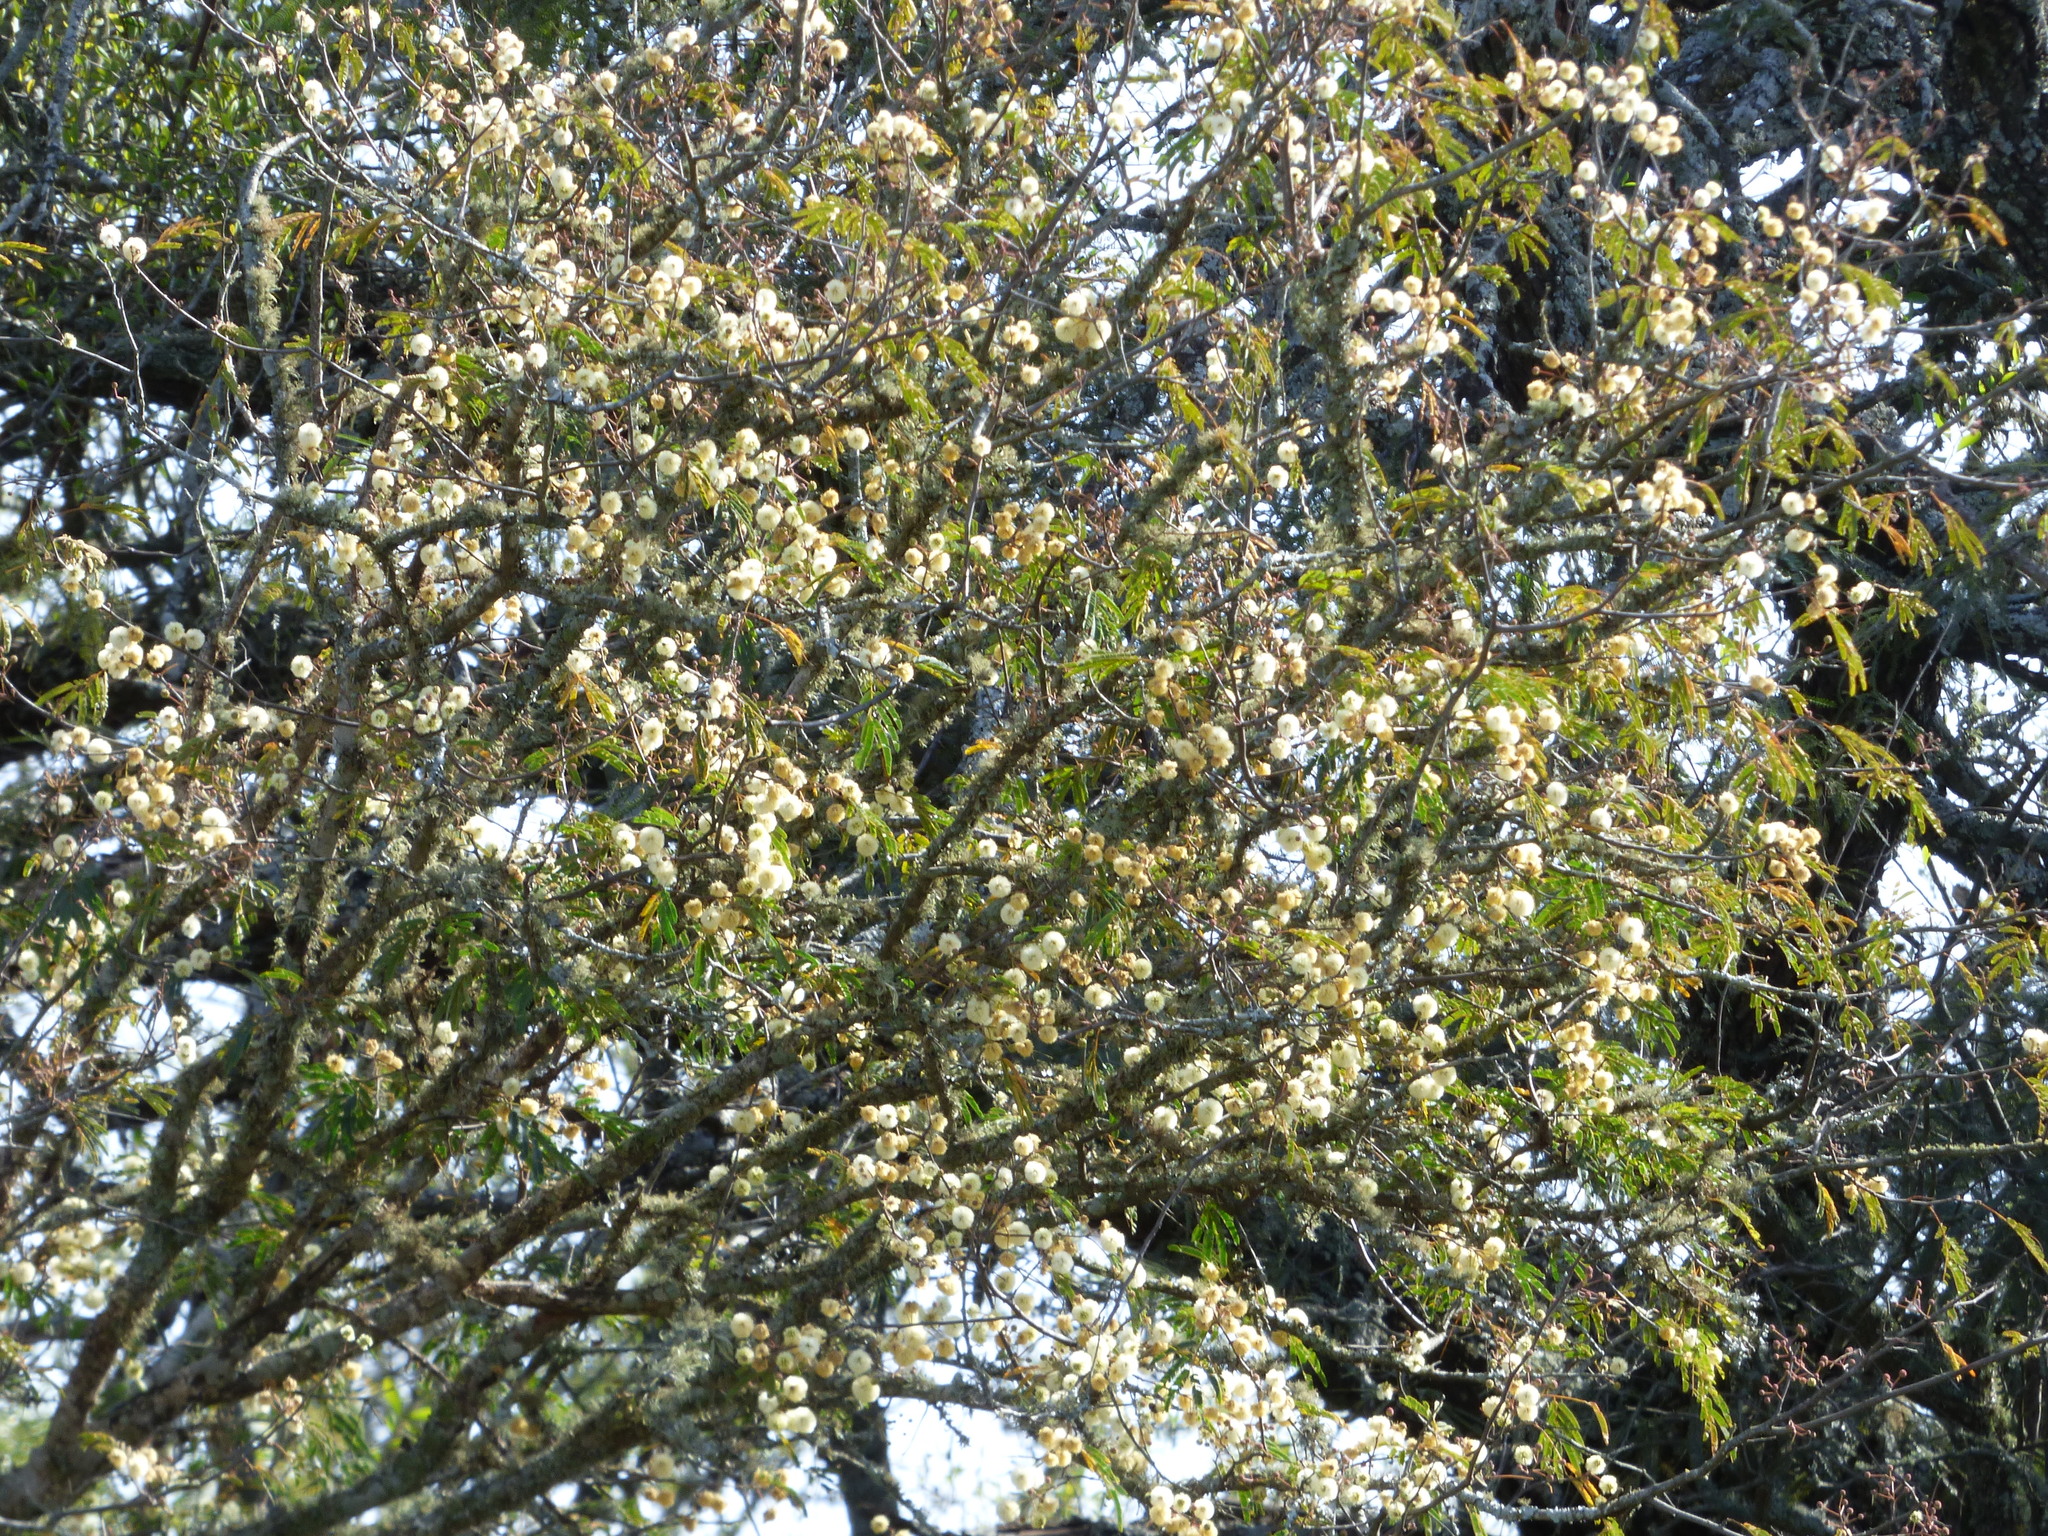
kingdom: Plantae
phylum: Tracheophyta
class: Magnoliopsida
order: Fabales
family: Fabaceae
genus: Senegalia
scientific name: Senegalia praecox
